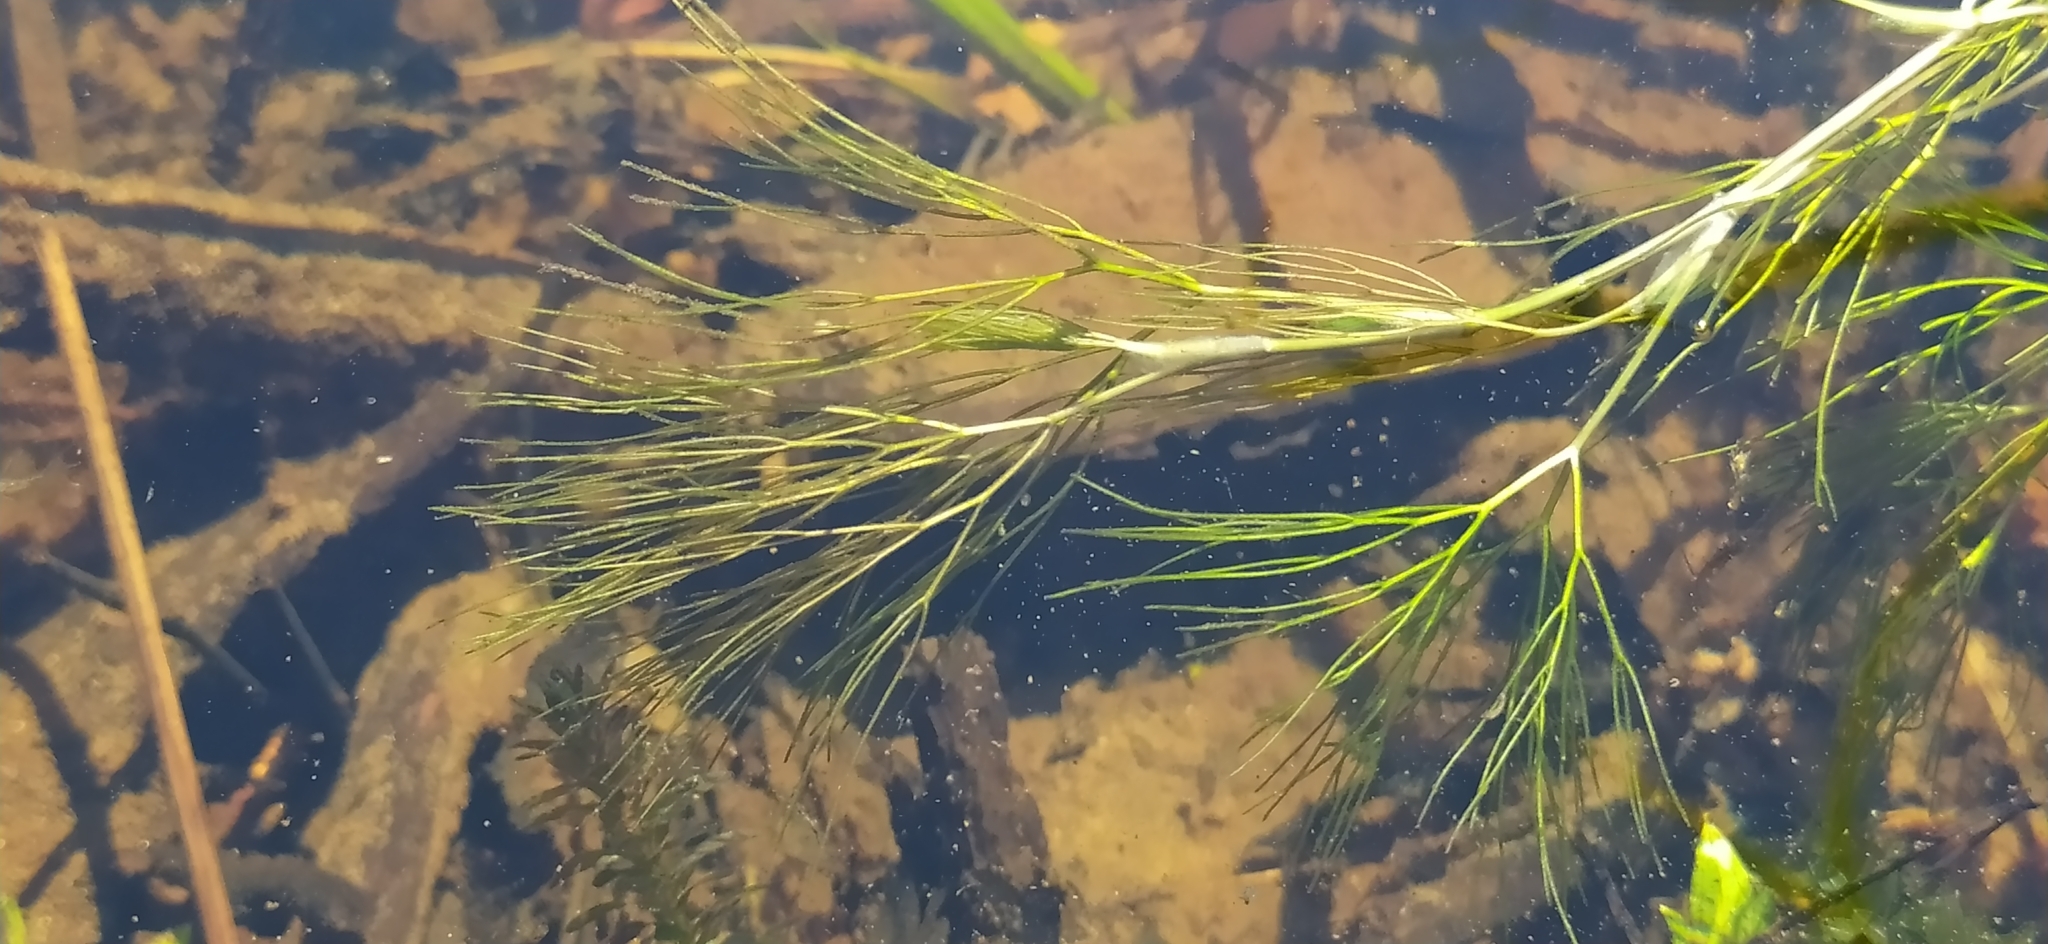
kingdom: Plantae
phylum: Tracheophyta
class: Magnoliopsida
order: Ranunculales
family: Ranunculaceae
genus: Ranunculus
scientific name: Ranunculus kauffmanii
